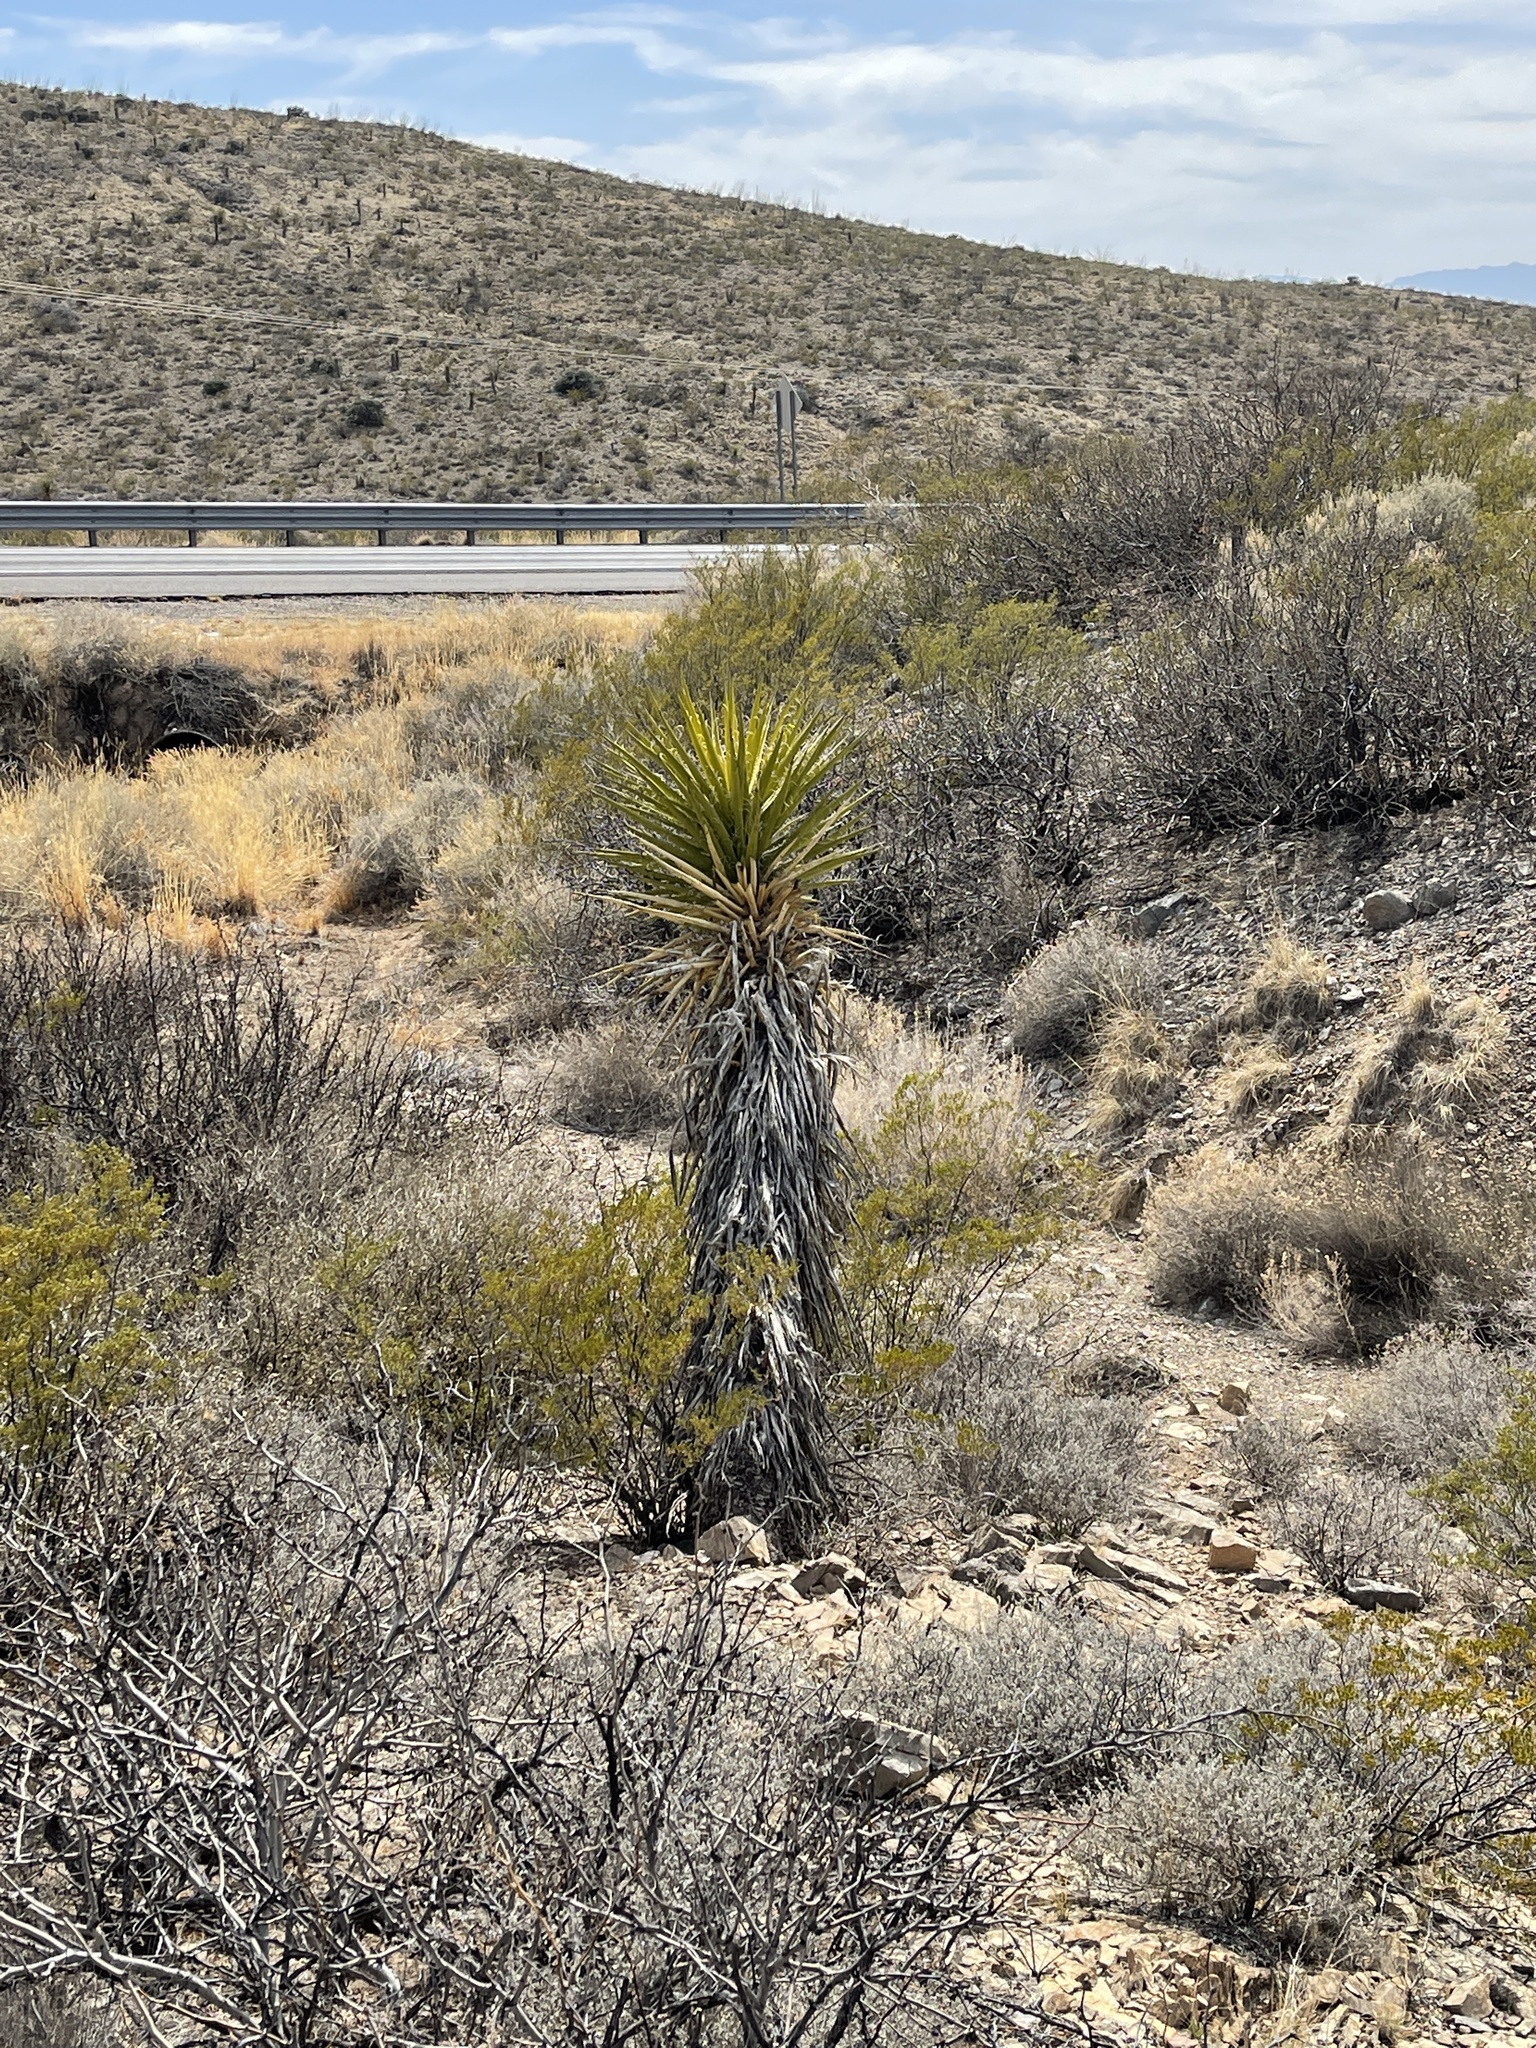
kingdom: Plantae
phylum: Tracheophyta
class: Liliopsida
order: Asparagales
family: Asparagaceae
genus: Yucca
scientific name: Yucca treculiana
